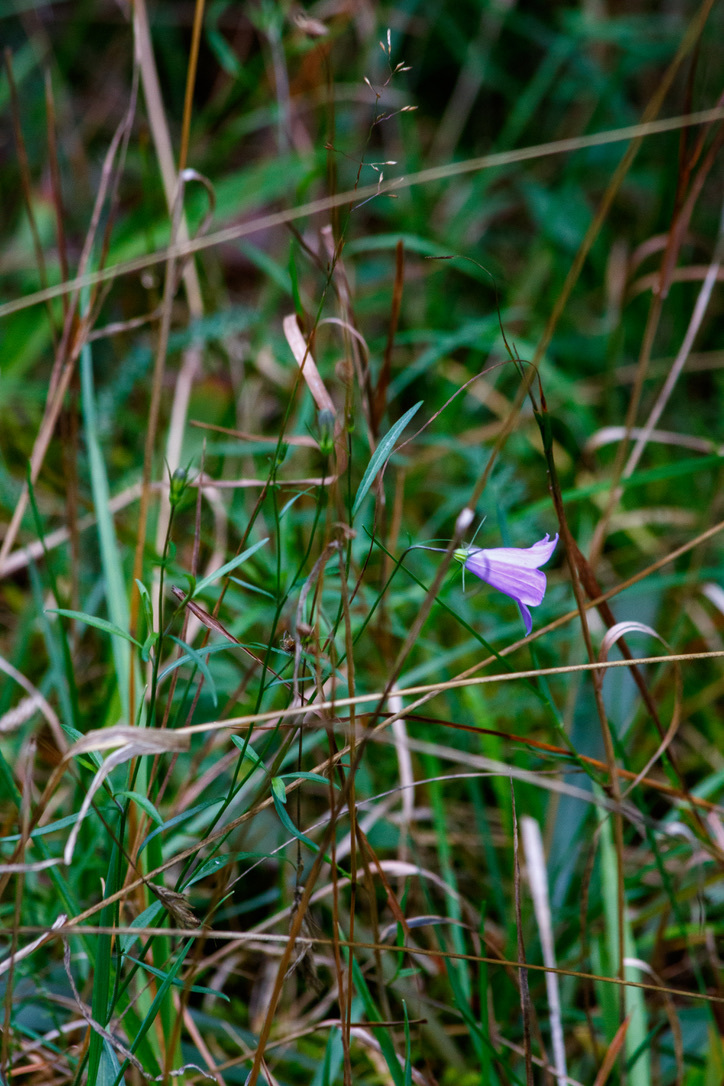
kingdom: Plantae
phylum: Tracheophyta
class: Magnoliopsida
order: Asterales
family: Campanulaceae
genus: Campanula
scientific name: Campanula patula
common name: Spreading bellflower
